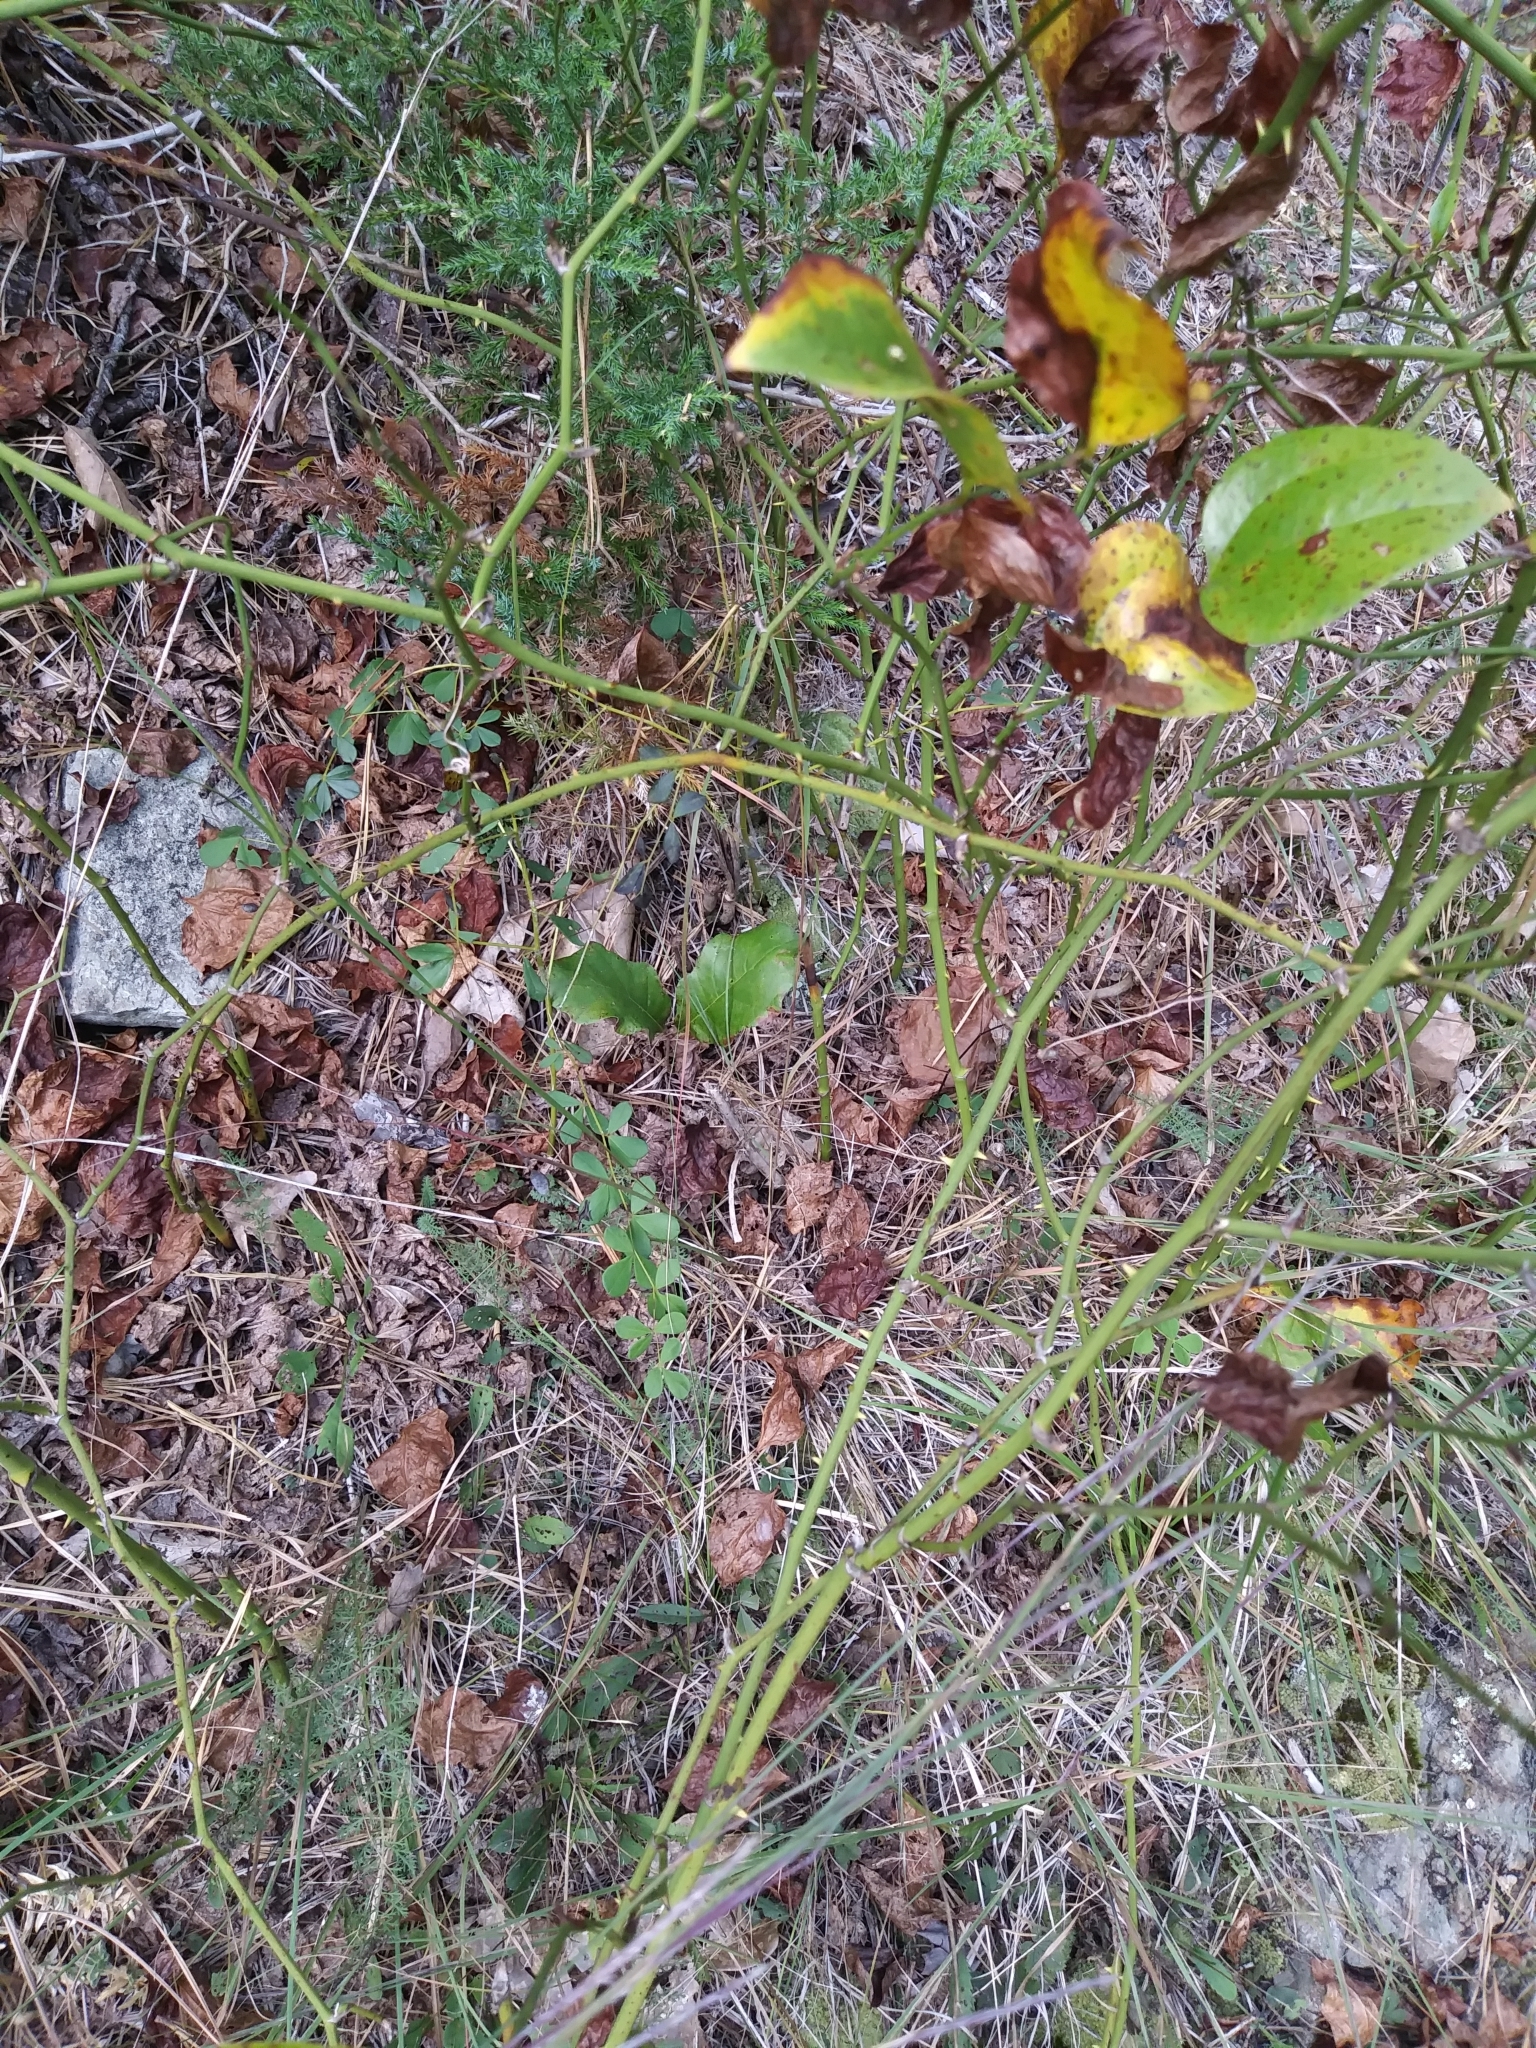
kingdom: Plantae
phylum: Tracheophyta
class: Magnoliopsida
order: Fabales
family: Fabaceae
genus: Baptisia
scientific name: Baptisia tinctoria
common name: Wild indigo
